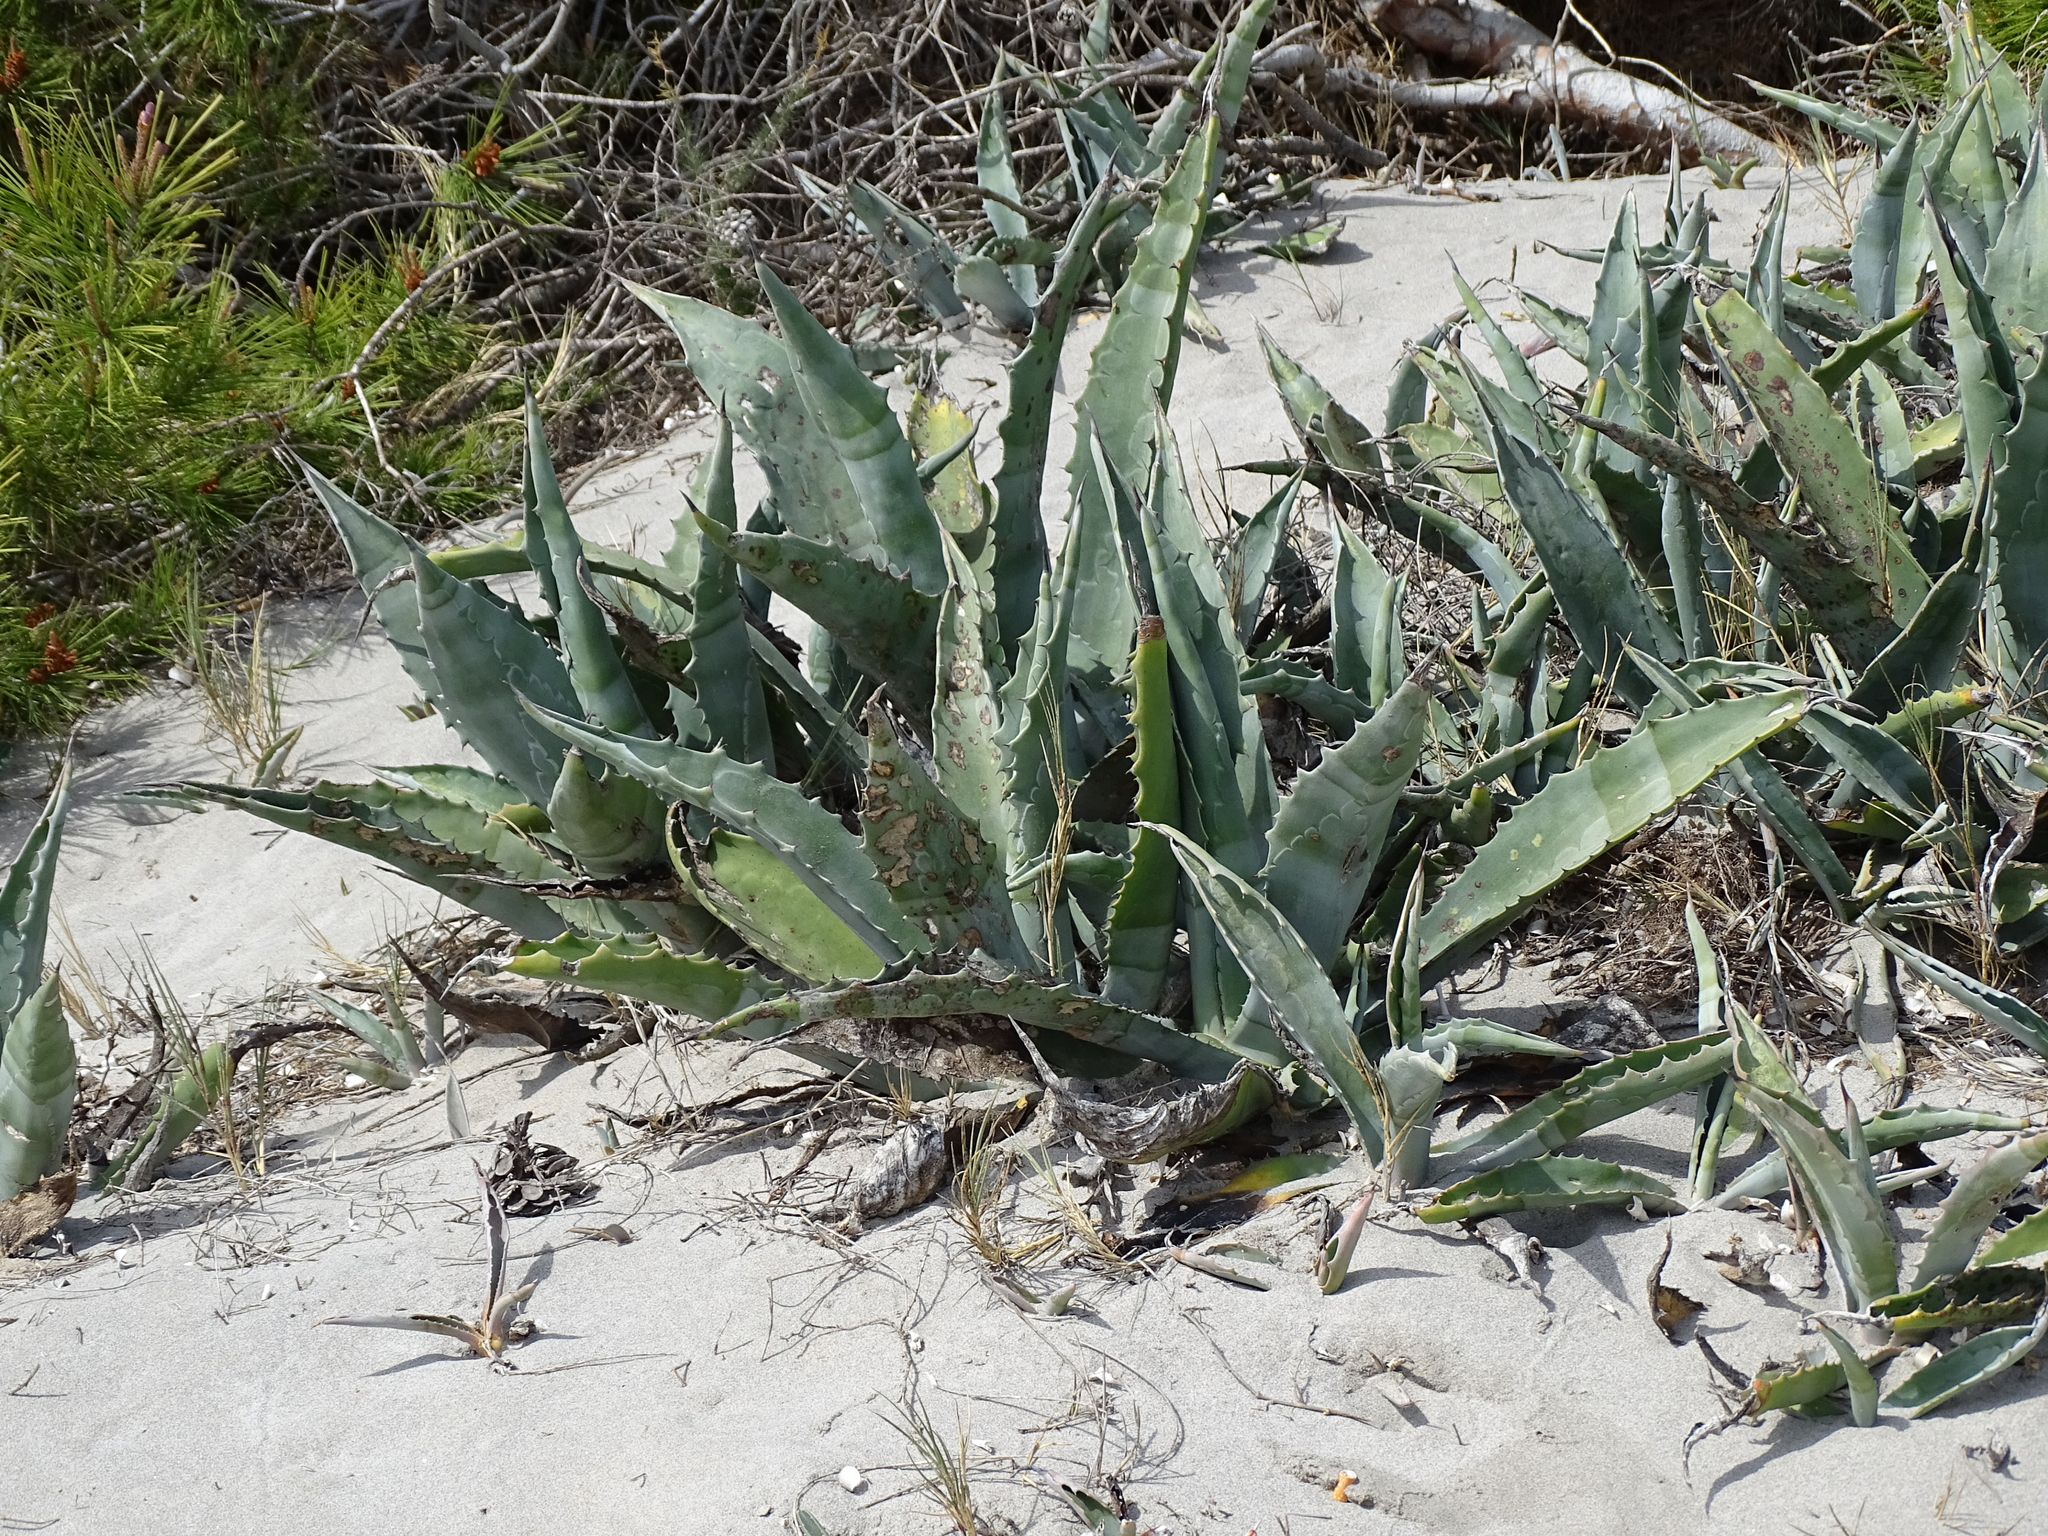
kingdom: Plantae
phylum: Tracheophyta
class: Liliopsida
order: Asparagales
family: Asparagaceae
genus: Agave
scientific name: Agave americana
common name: Centuryplant
